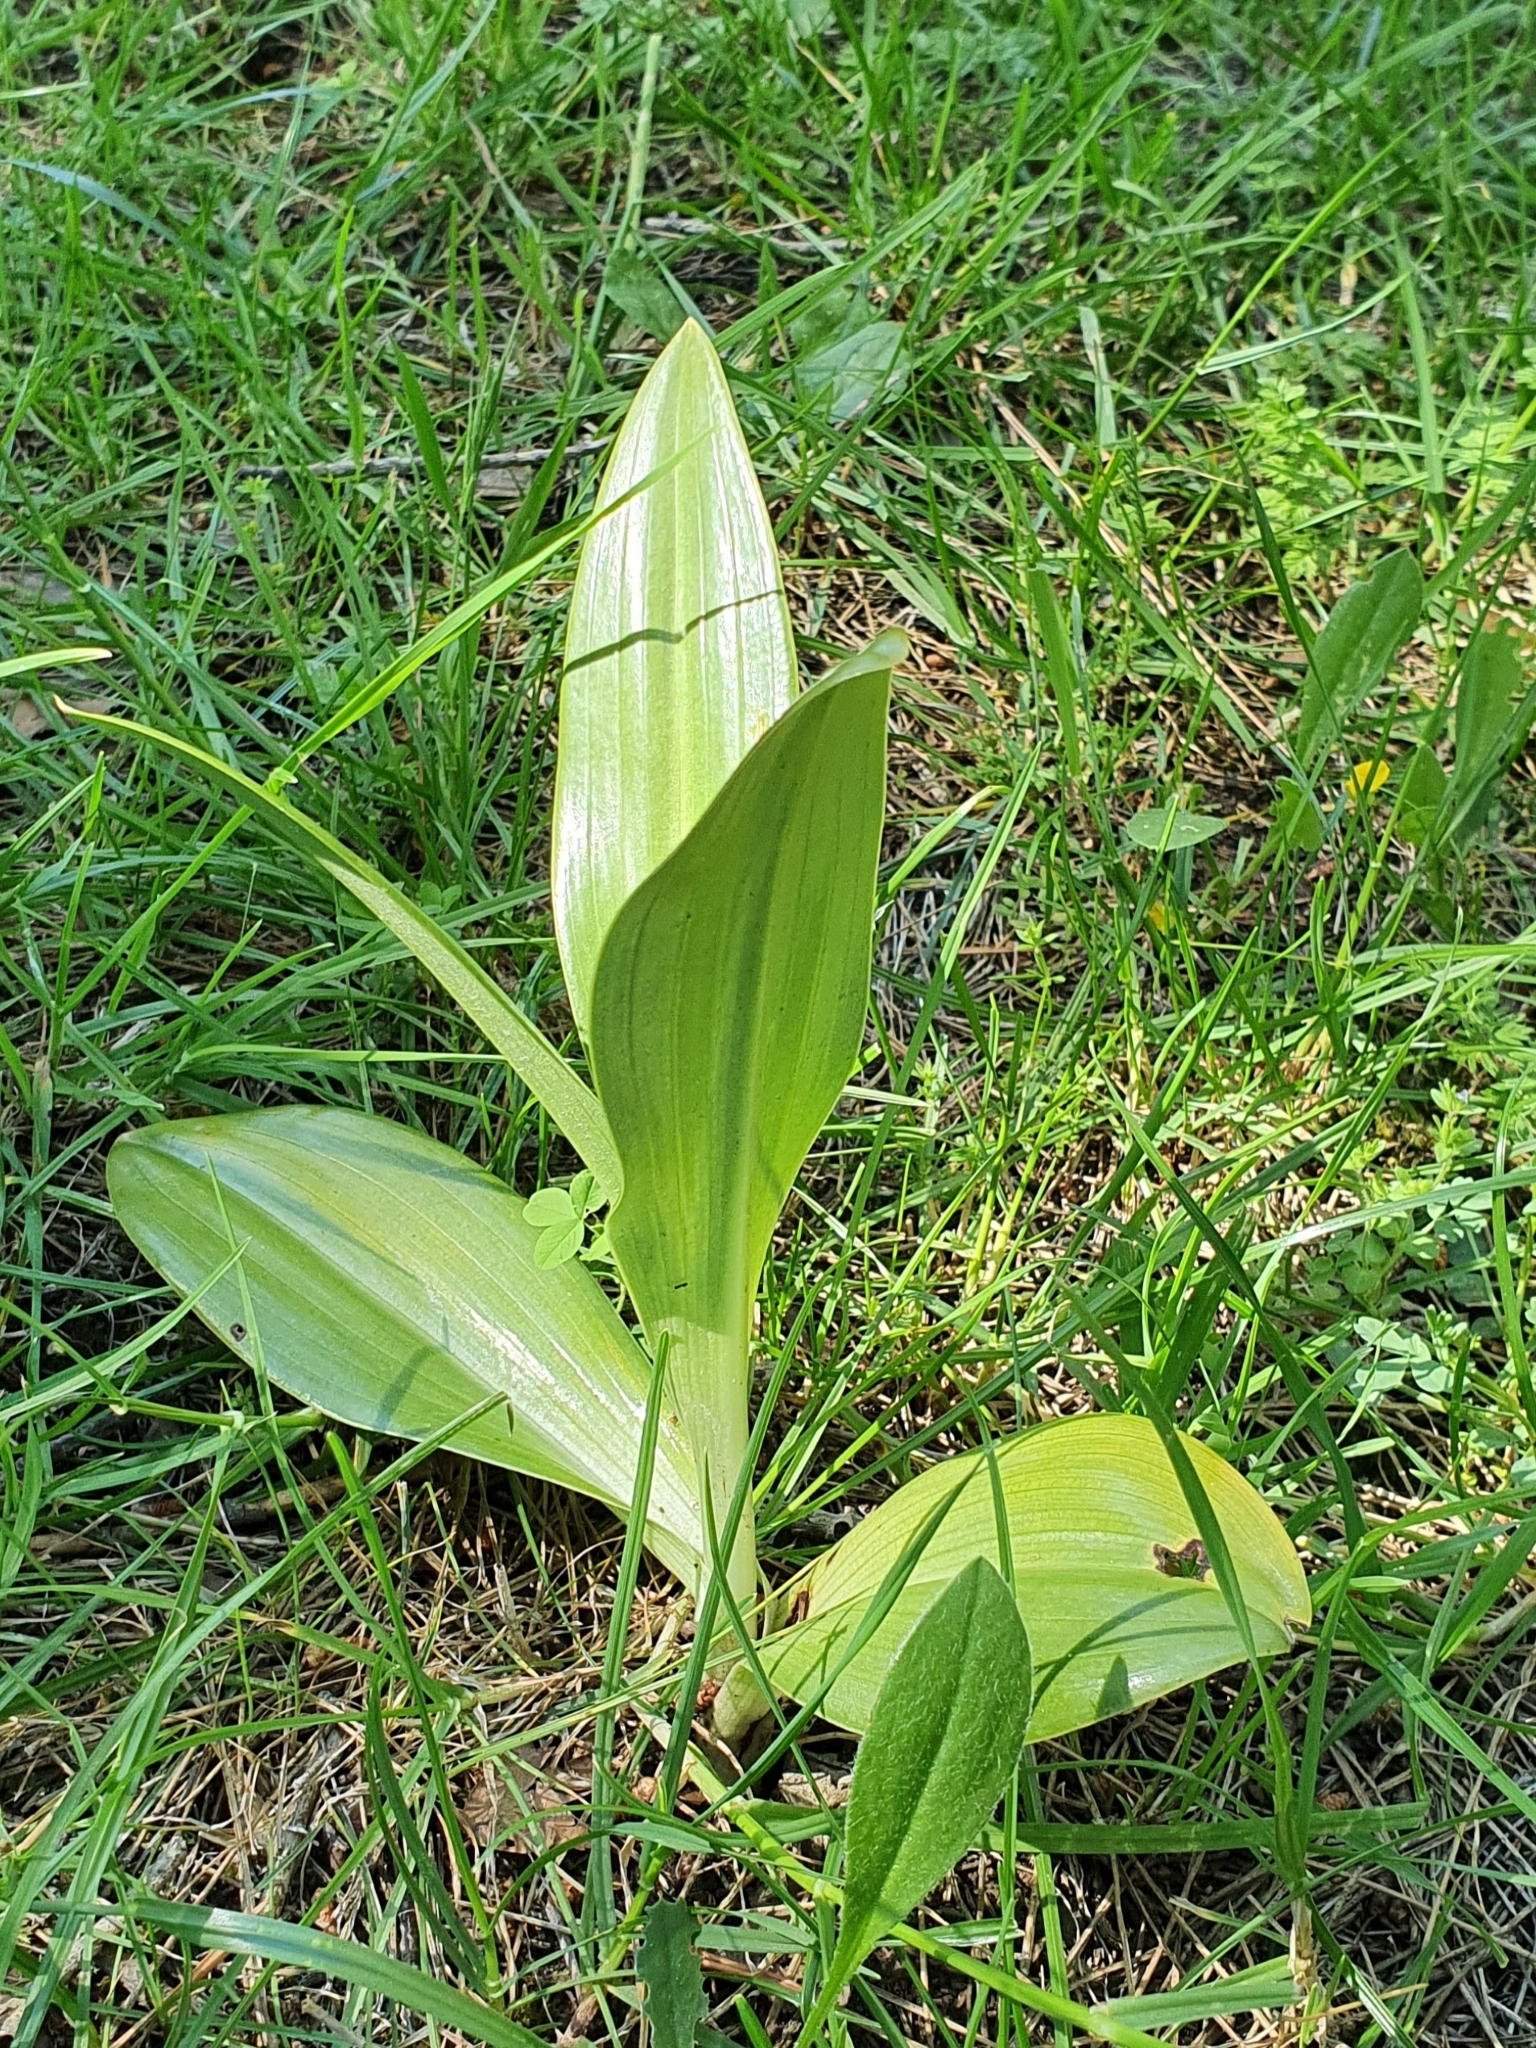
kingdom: Plantae
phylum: Tracheophyta
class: Liliopsida
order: Asparagales
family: Orchidaceae
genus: Himantoglossum
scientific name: Himantoglossum hircinum
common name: Lizard orchid
